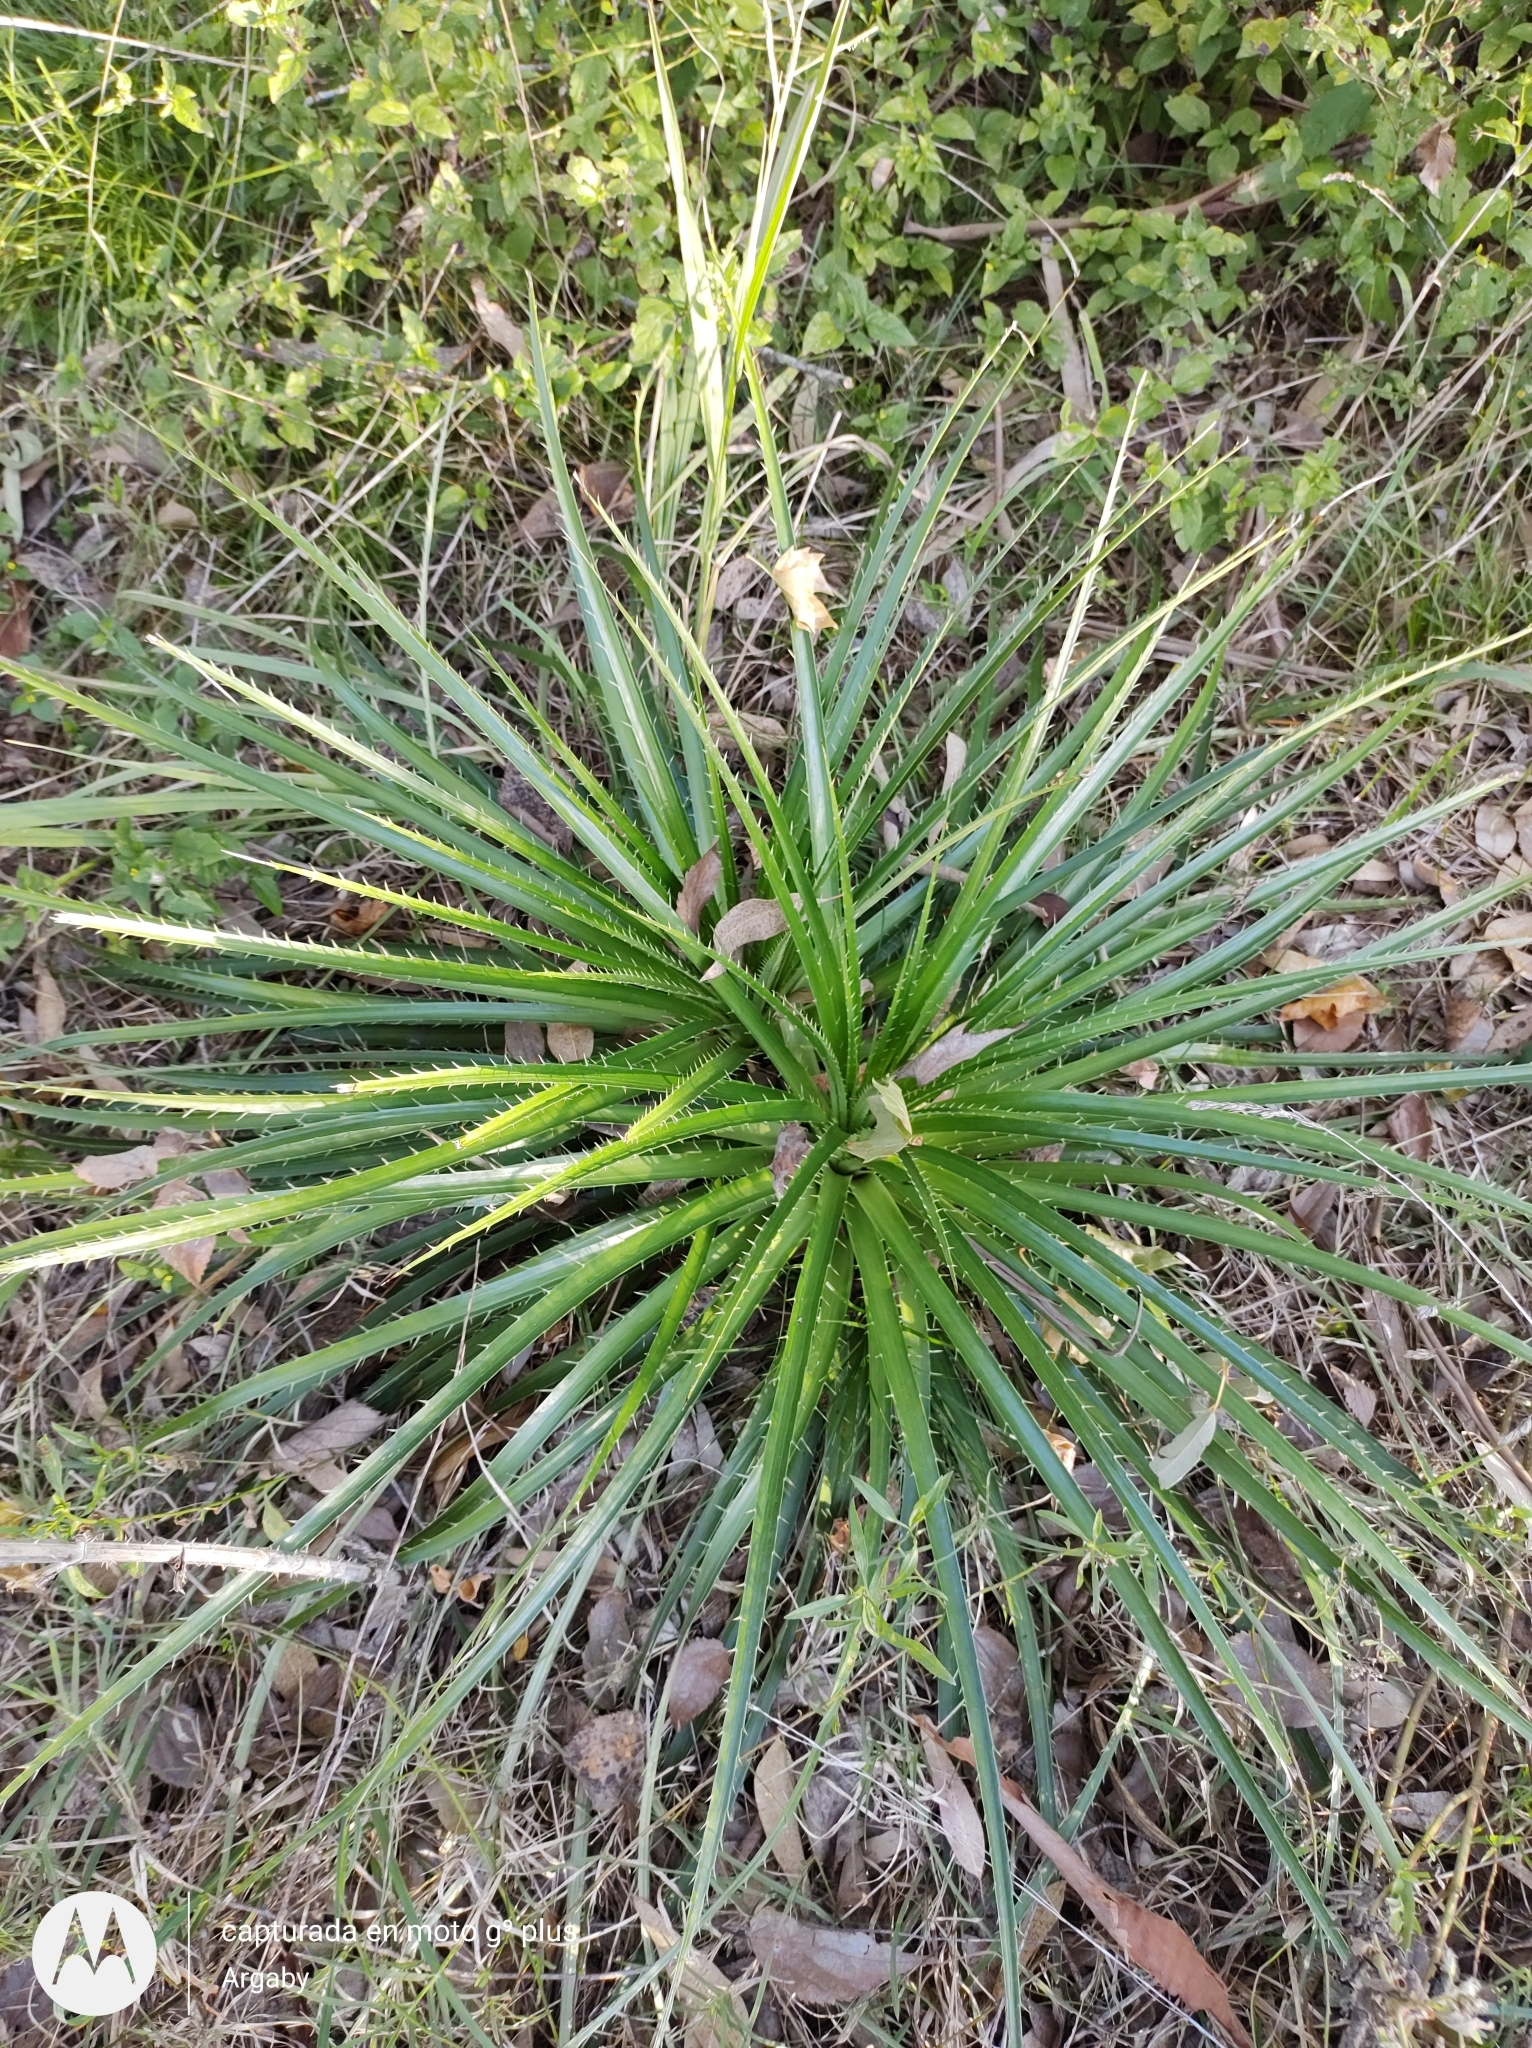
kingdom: Plantae
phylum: Tracheophyta
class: Magnoliopsida
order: Apiales
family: Apiaceae
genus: Eryngium
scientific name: Eryngium horridum
